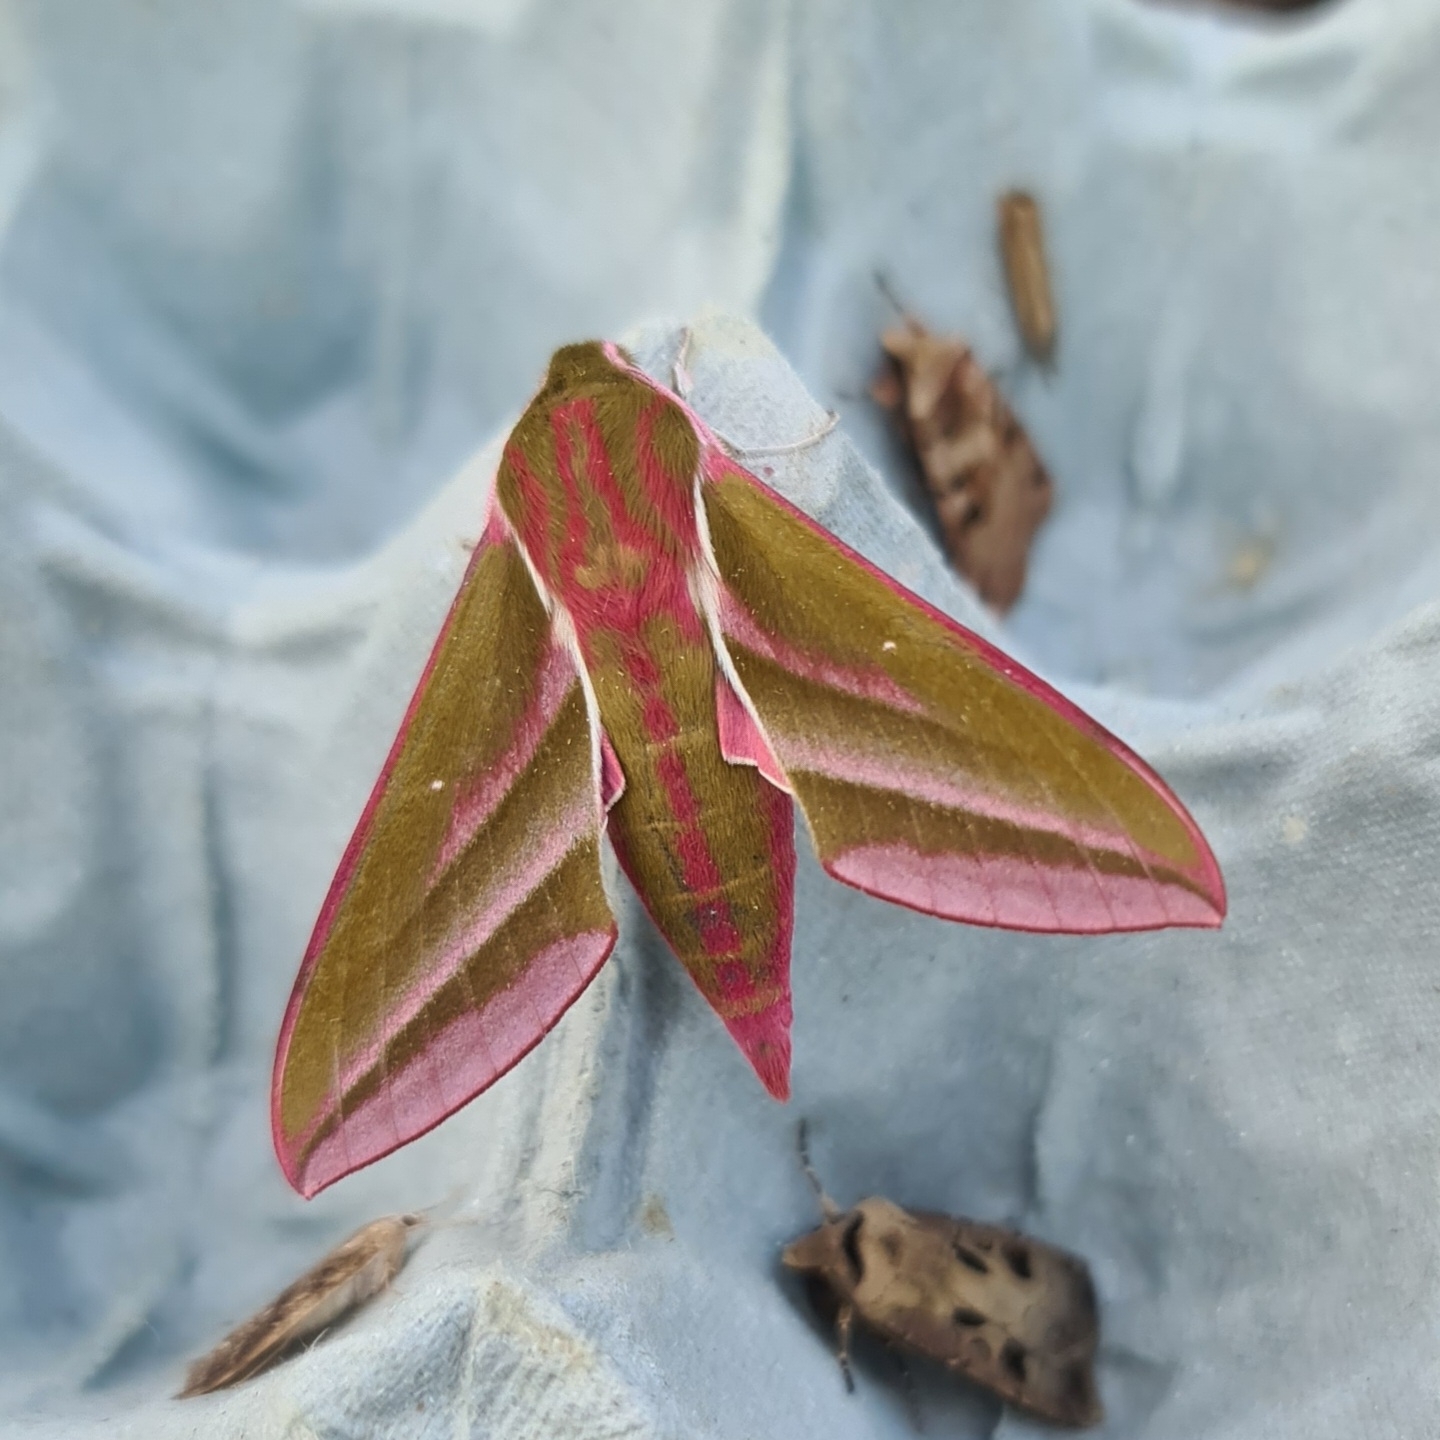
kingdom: Animalia
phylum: Arthropoda
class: Insecta
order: Lepidoptera
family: Sphingidae
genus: Deilephila
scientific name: Deilephila elpenor
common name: Elephant hawk-moth
